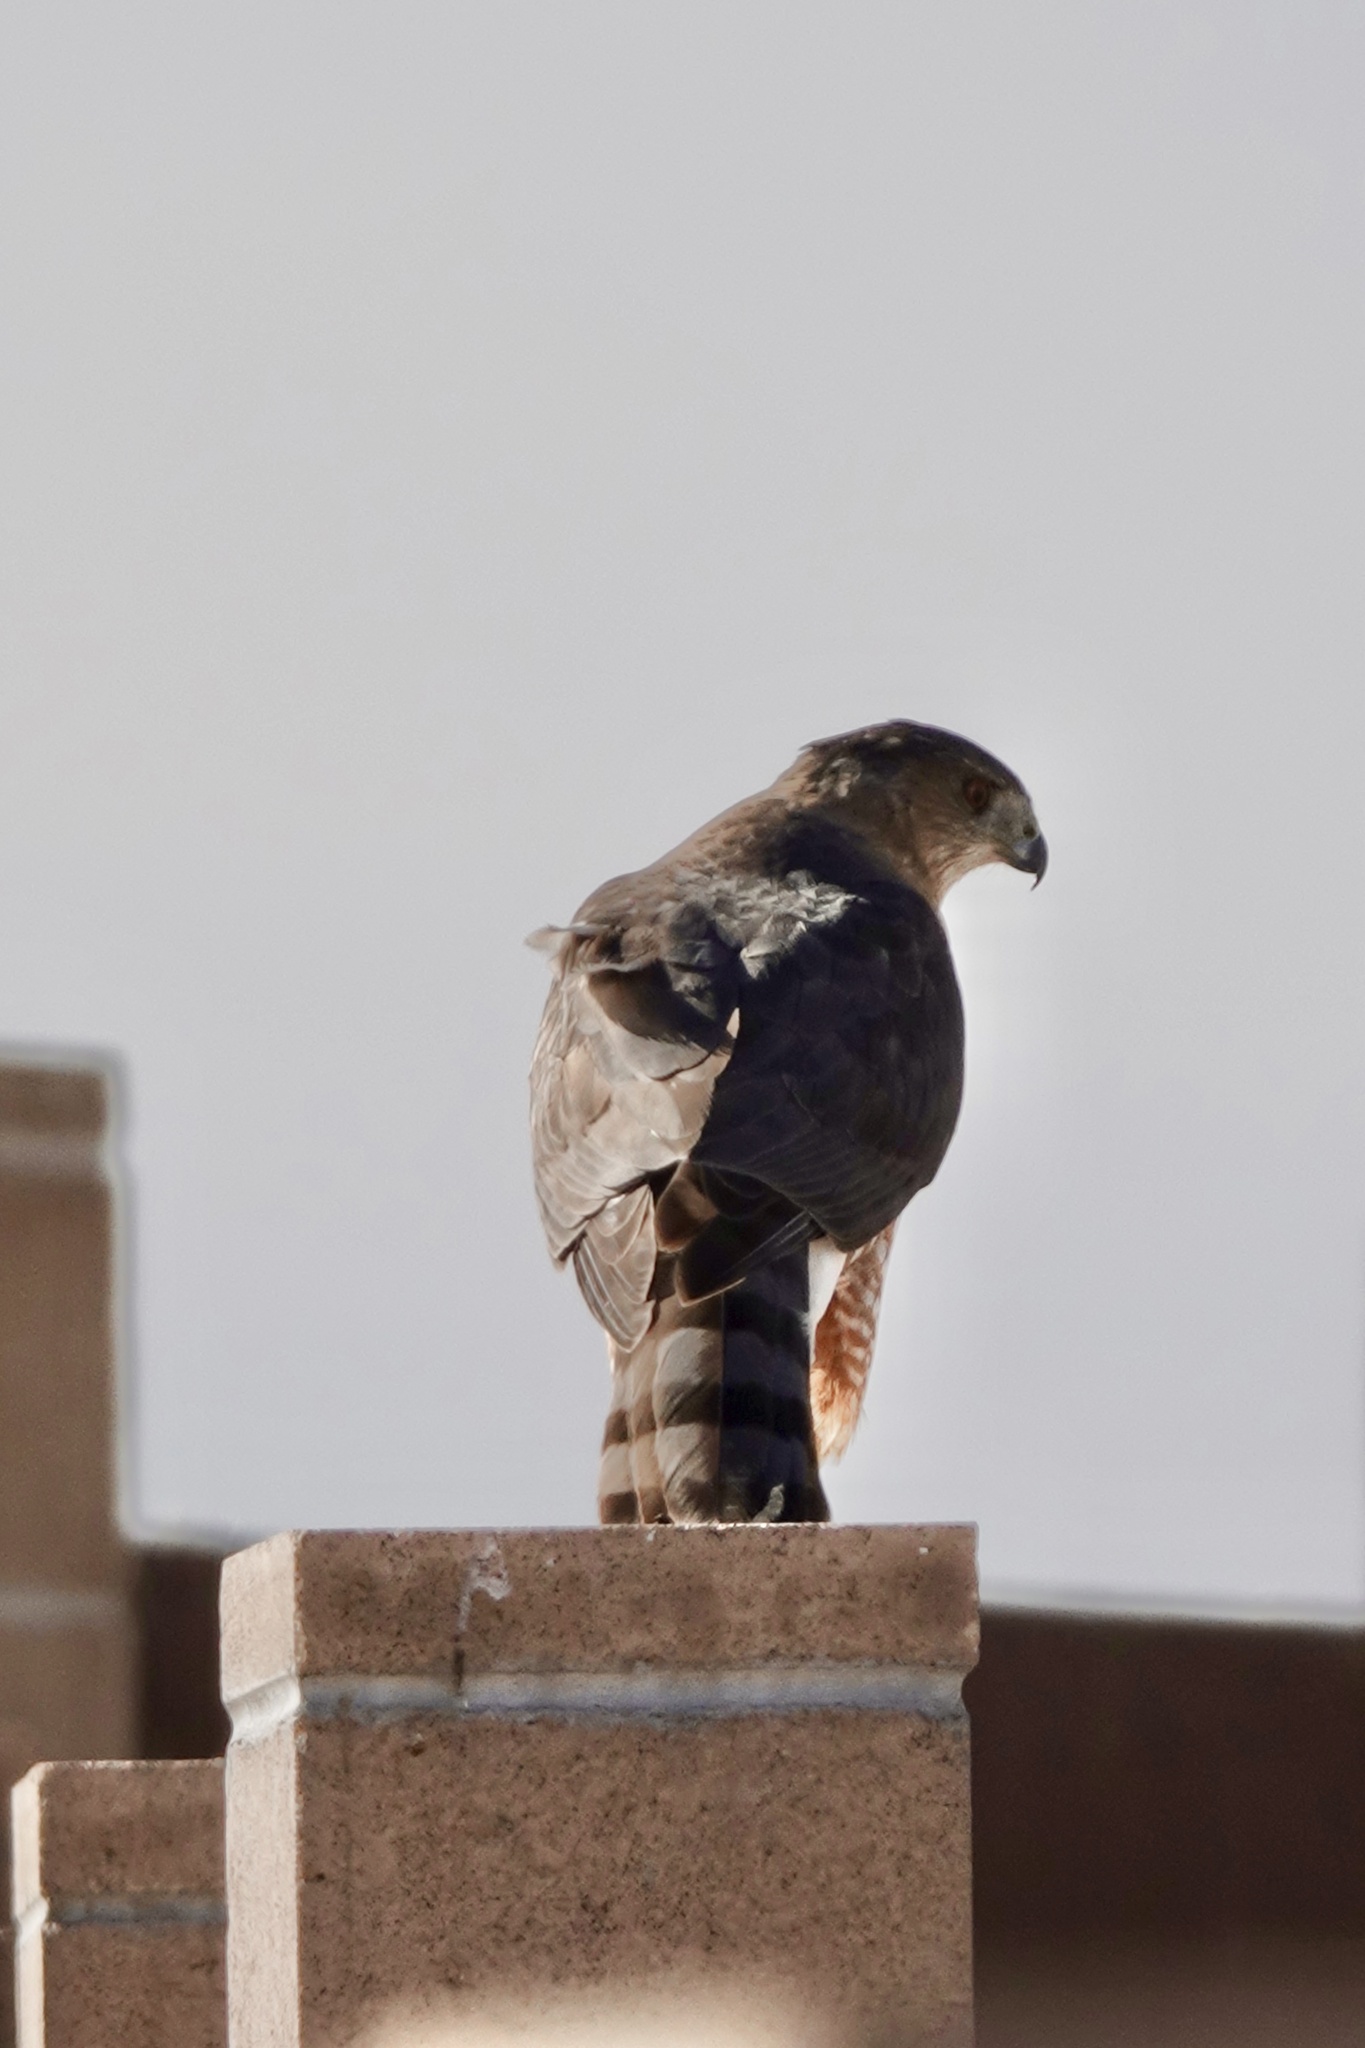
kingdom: Animalia
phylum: Chordata
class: Aves
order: Accipitriformes
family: Accipitridae
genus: Accipiter
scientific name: Accipiter cooperii
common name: Cooper's hawk
